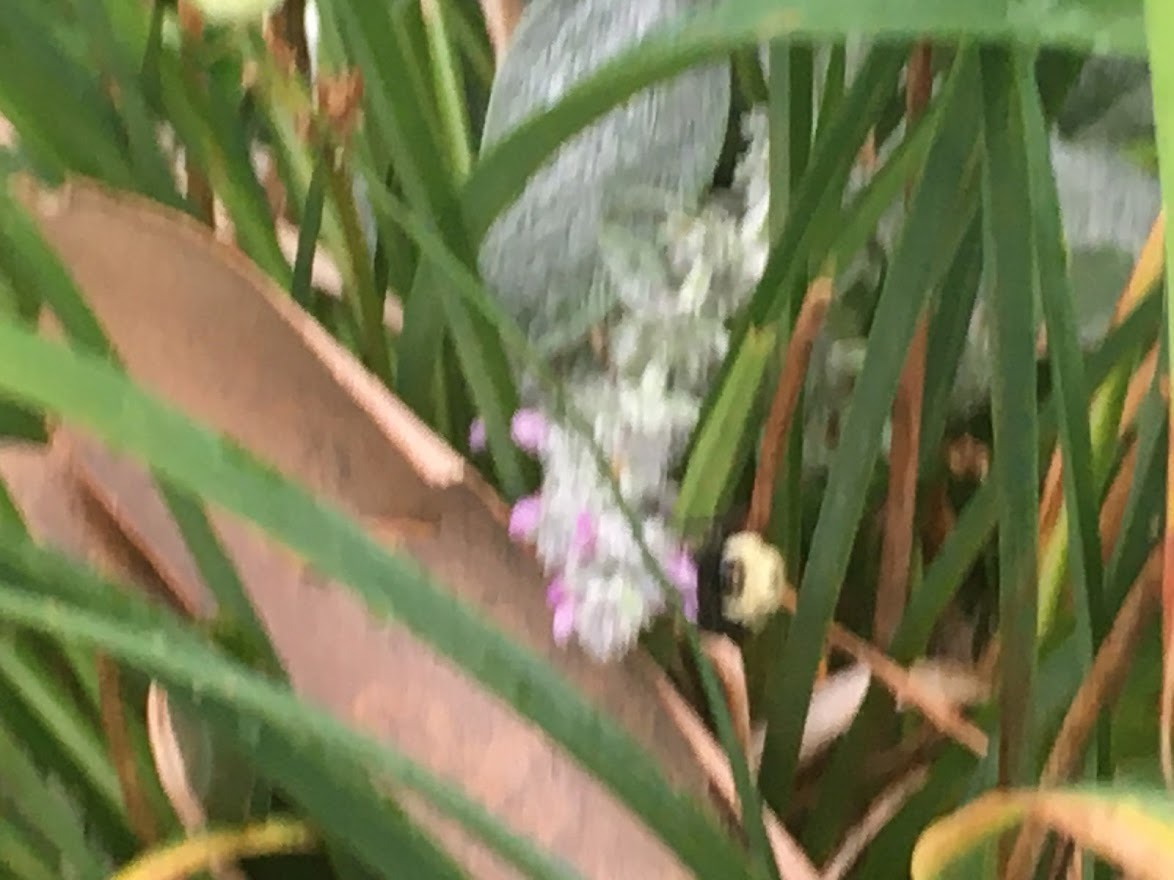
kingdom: Animalia
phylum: Arthropoda
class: Insecta
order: Hymenoptera
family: Apidae
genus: Bombus
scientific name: Bombus bimaculatus
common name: Two-spotted bumble bee
